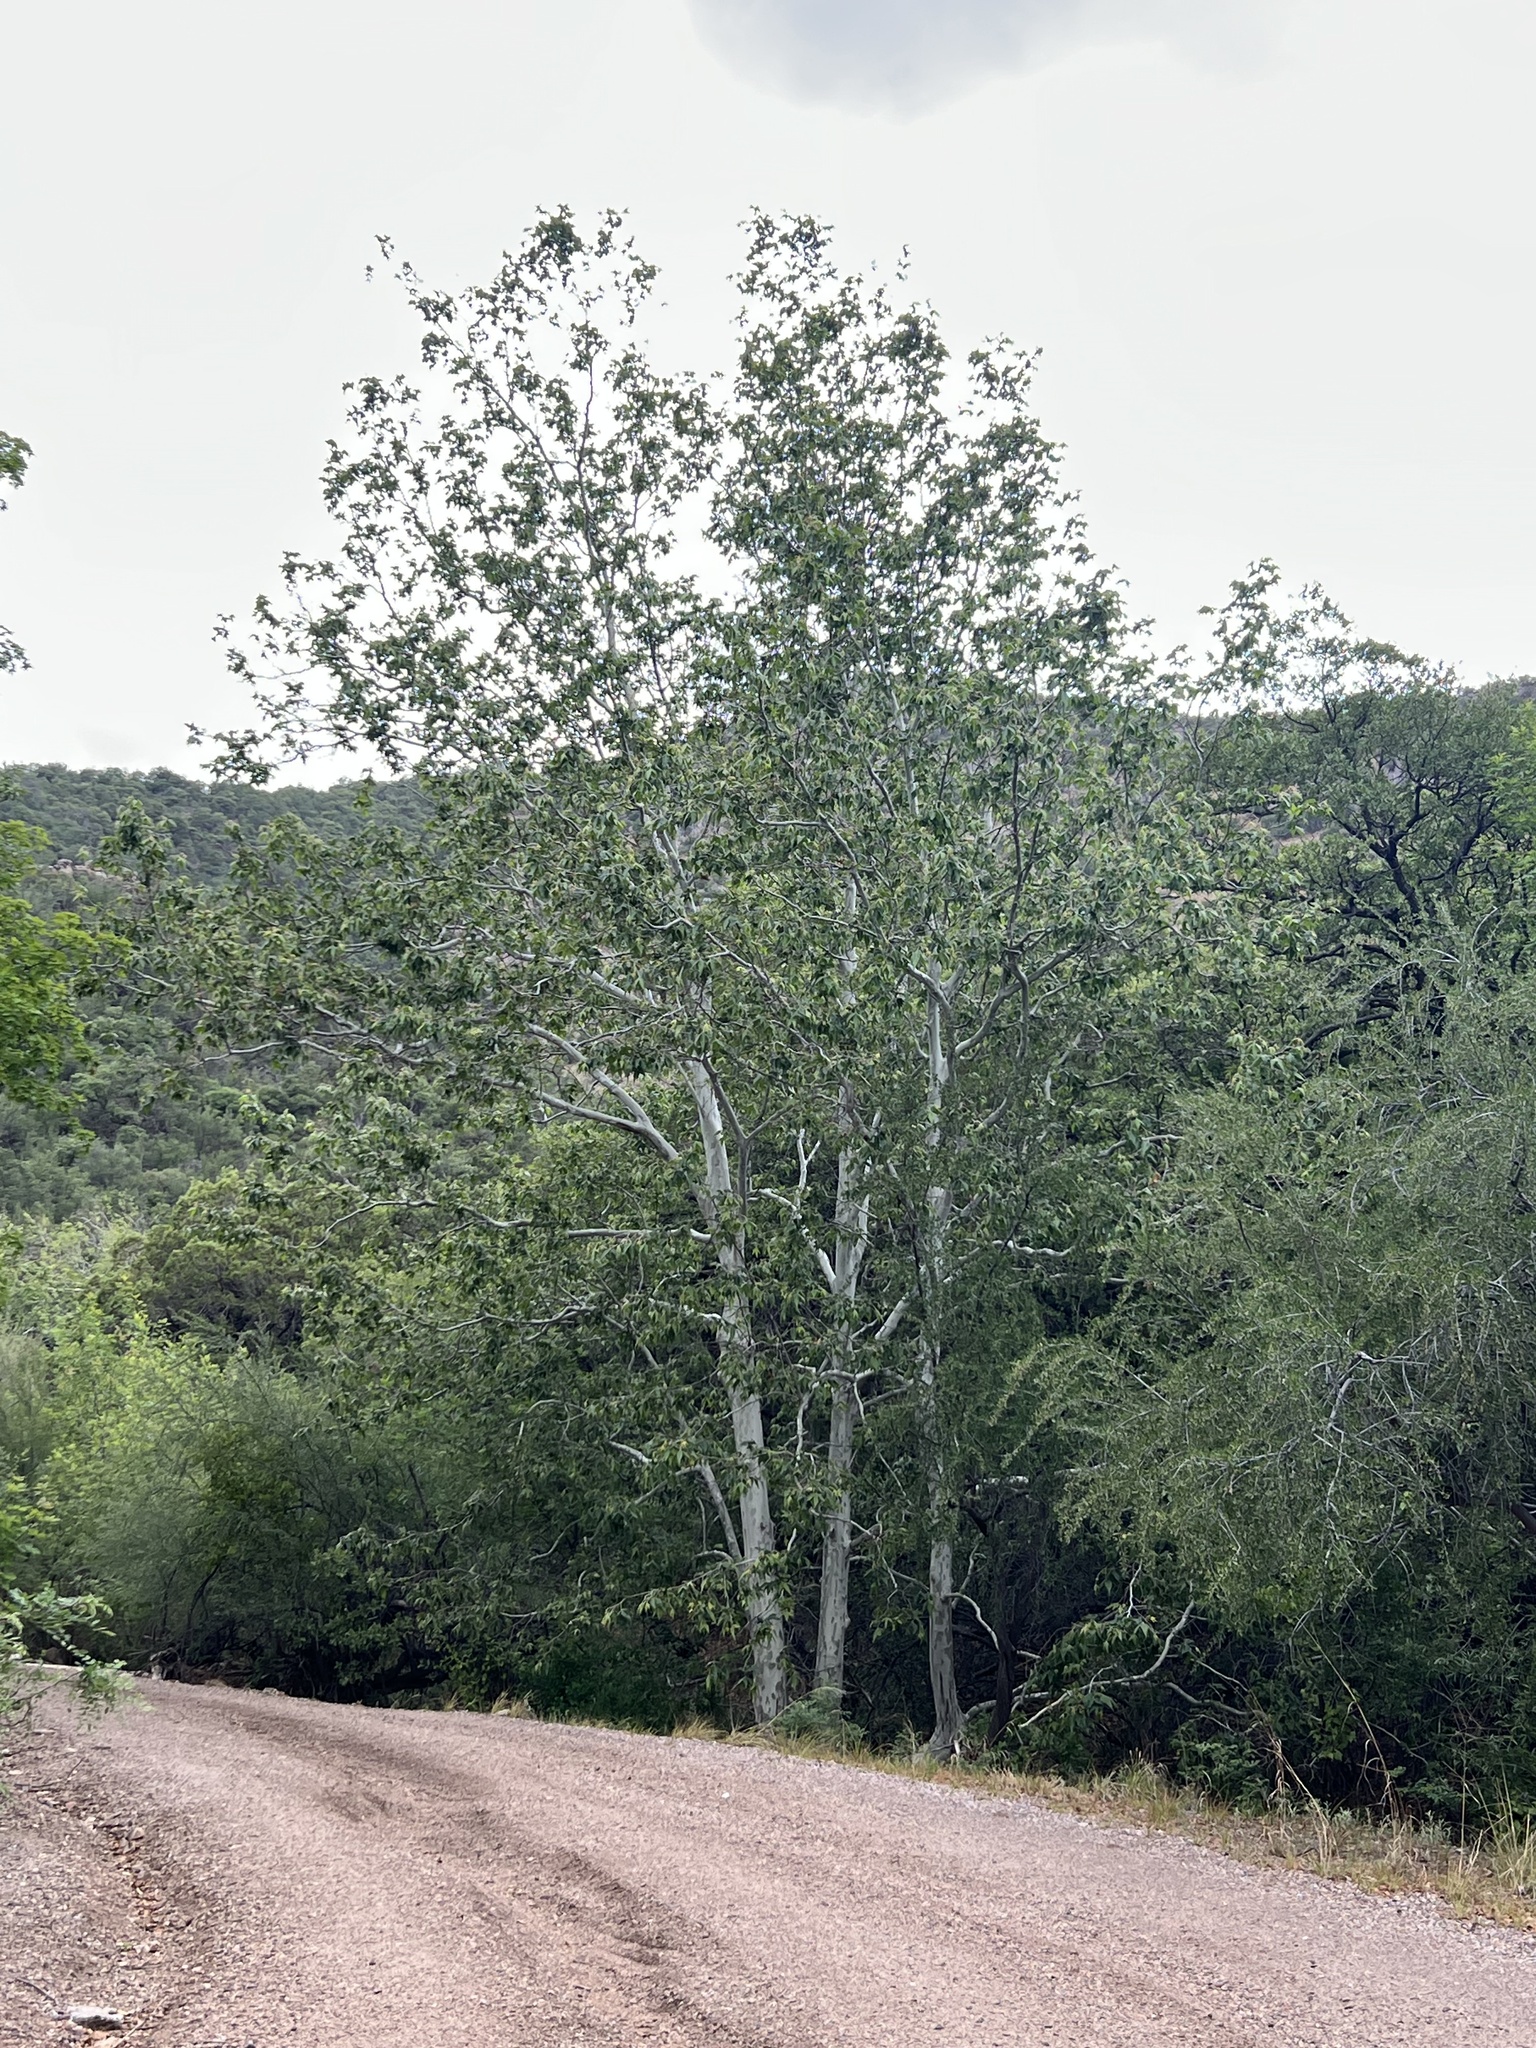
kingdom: Plantae
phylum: Tracheophyta
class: Magnoliopsida
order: Proteales
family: Platanaceae
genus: Platanus
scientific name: Platanus wrightii
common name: Arizona sycamore
